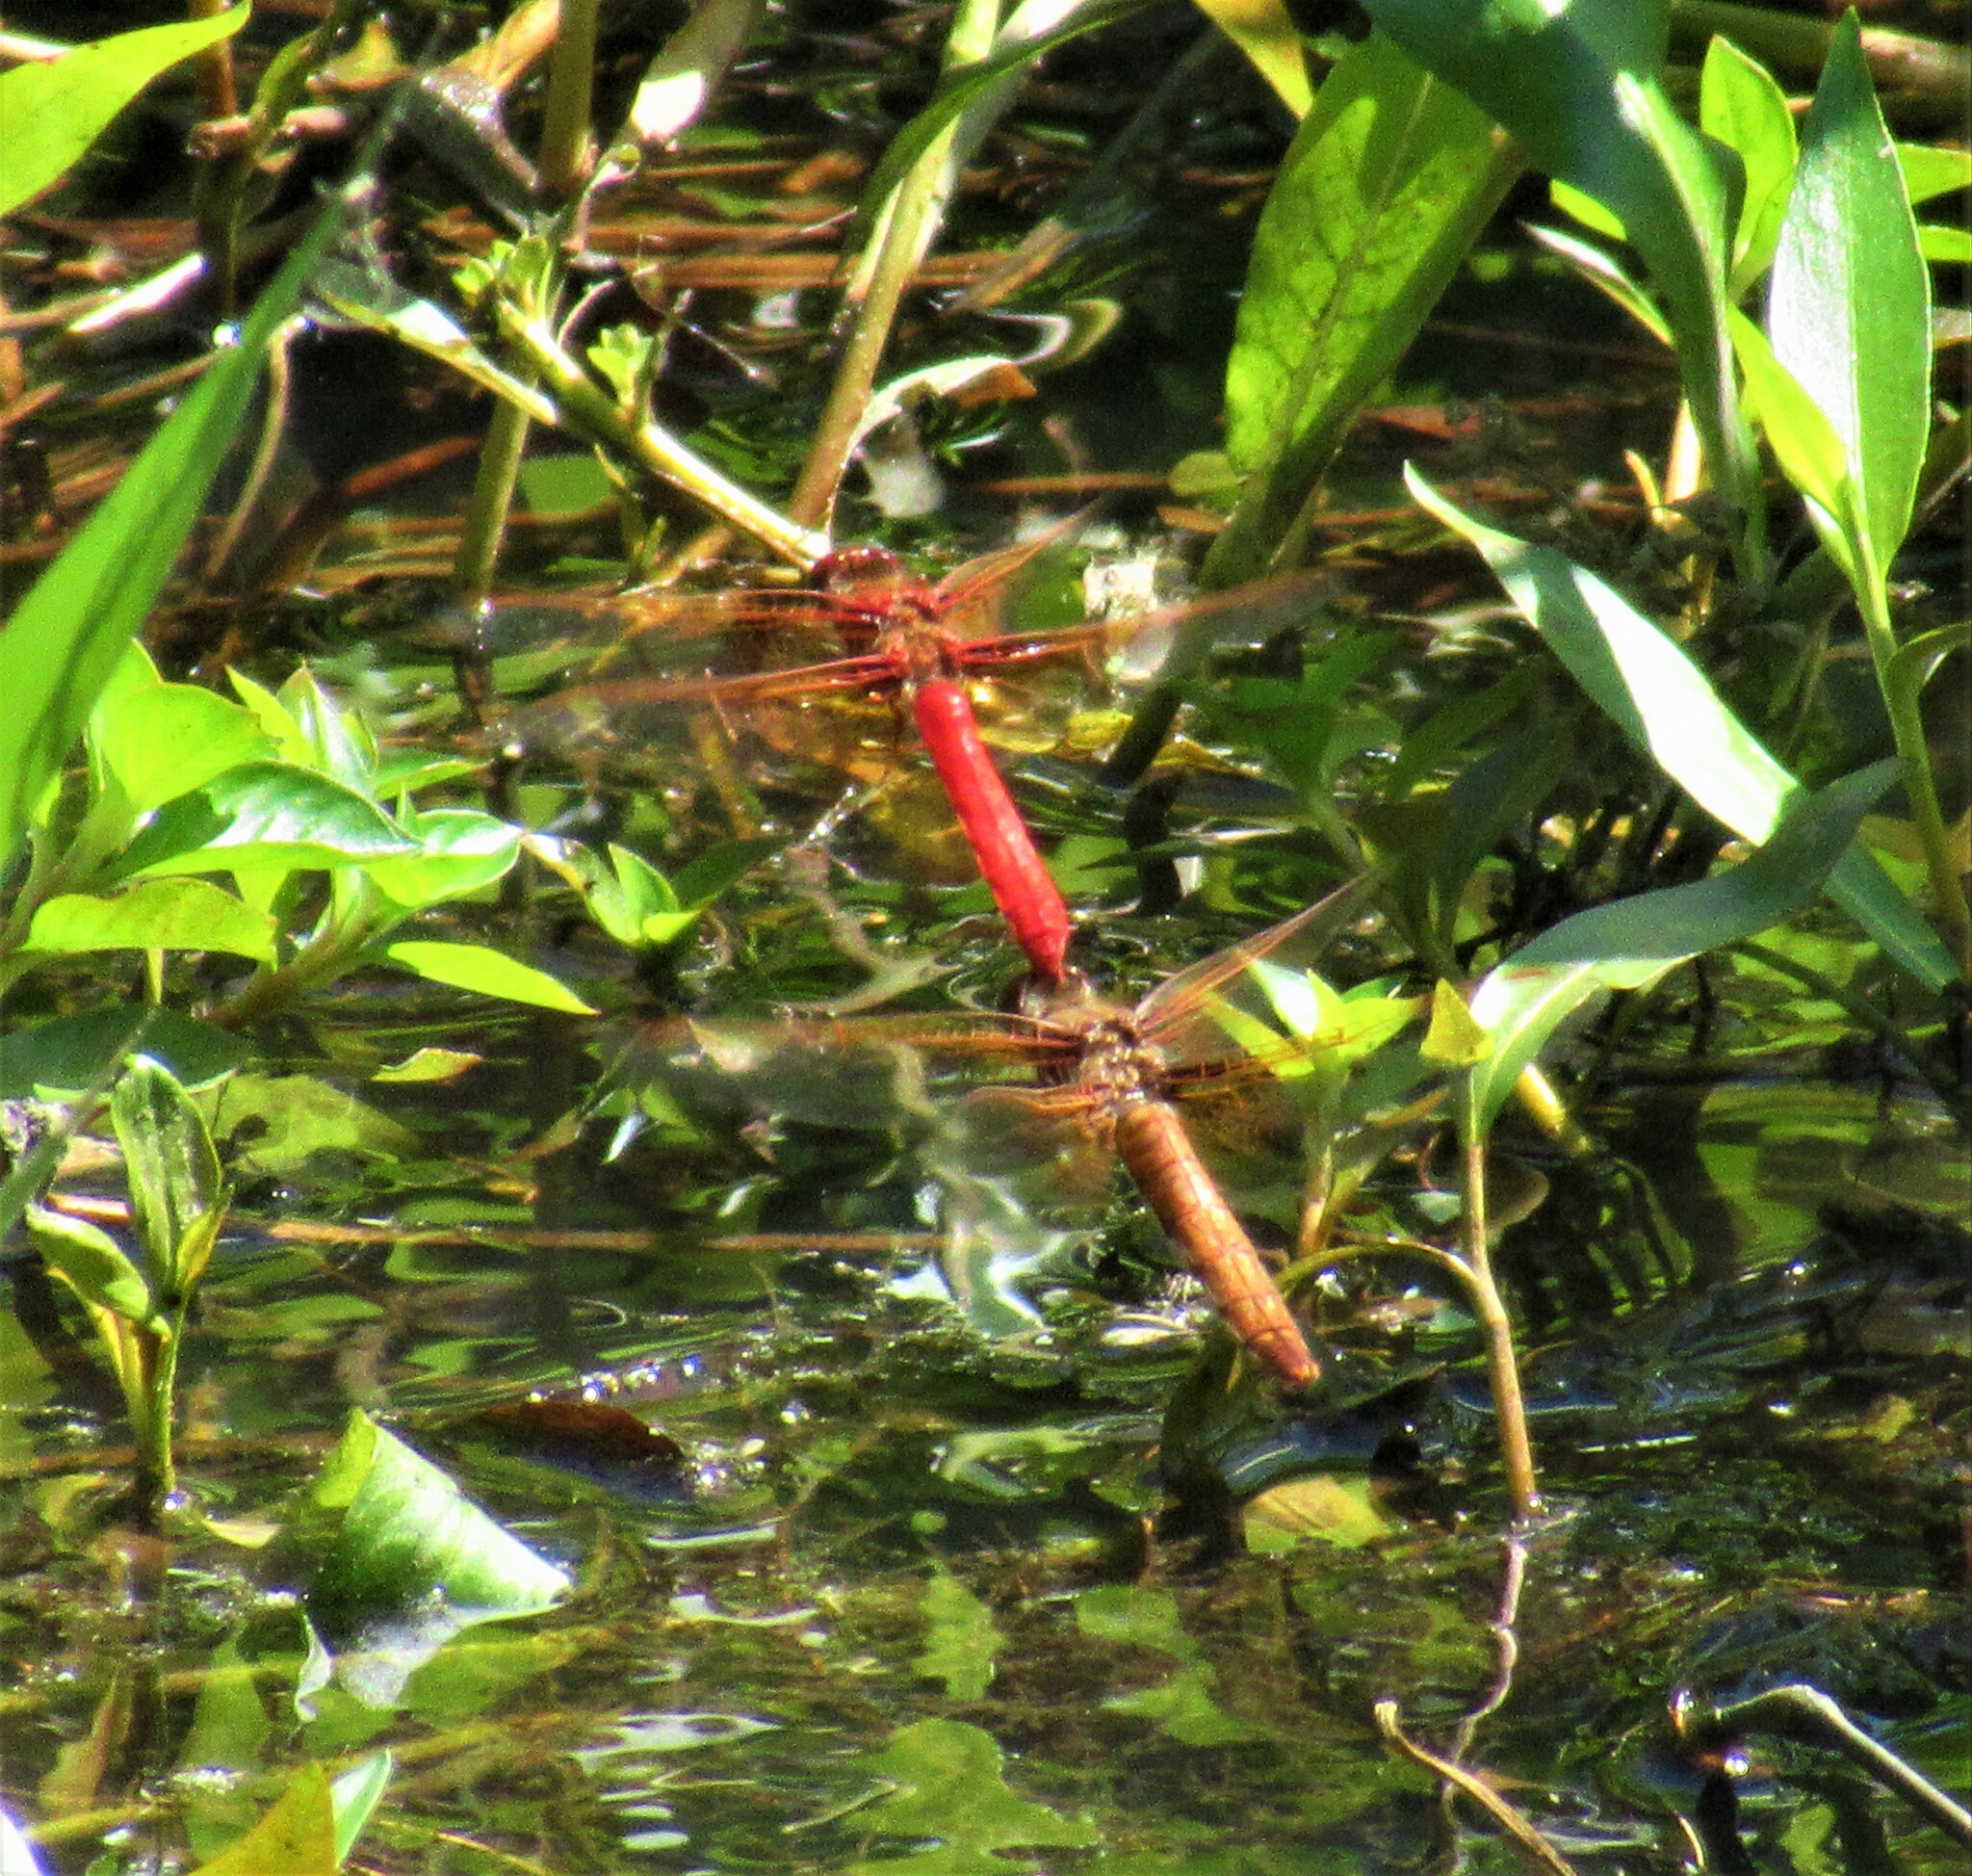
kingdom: Animalia
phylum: Arthropoda
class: Insecta
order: Odonata
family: Libellulidae
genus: Sympetrum
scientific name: Sympetrum illotum
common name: Cardinal meadowhawk
